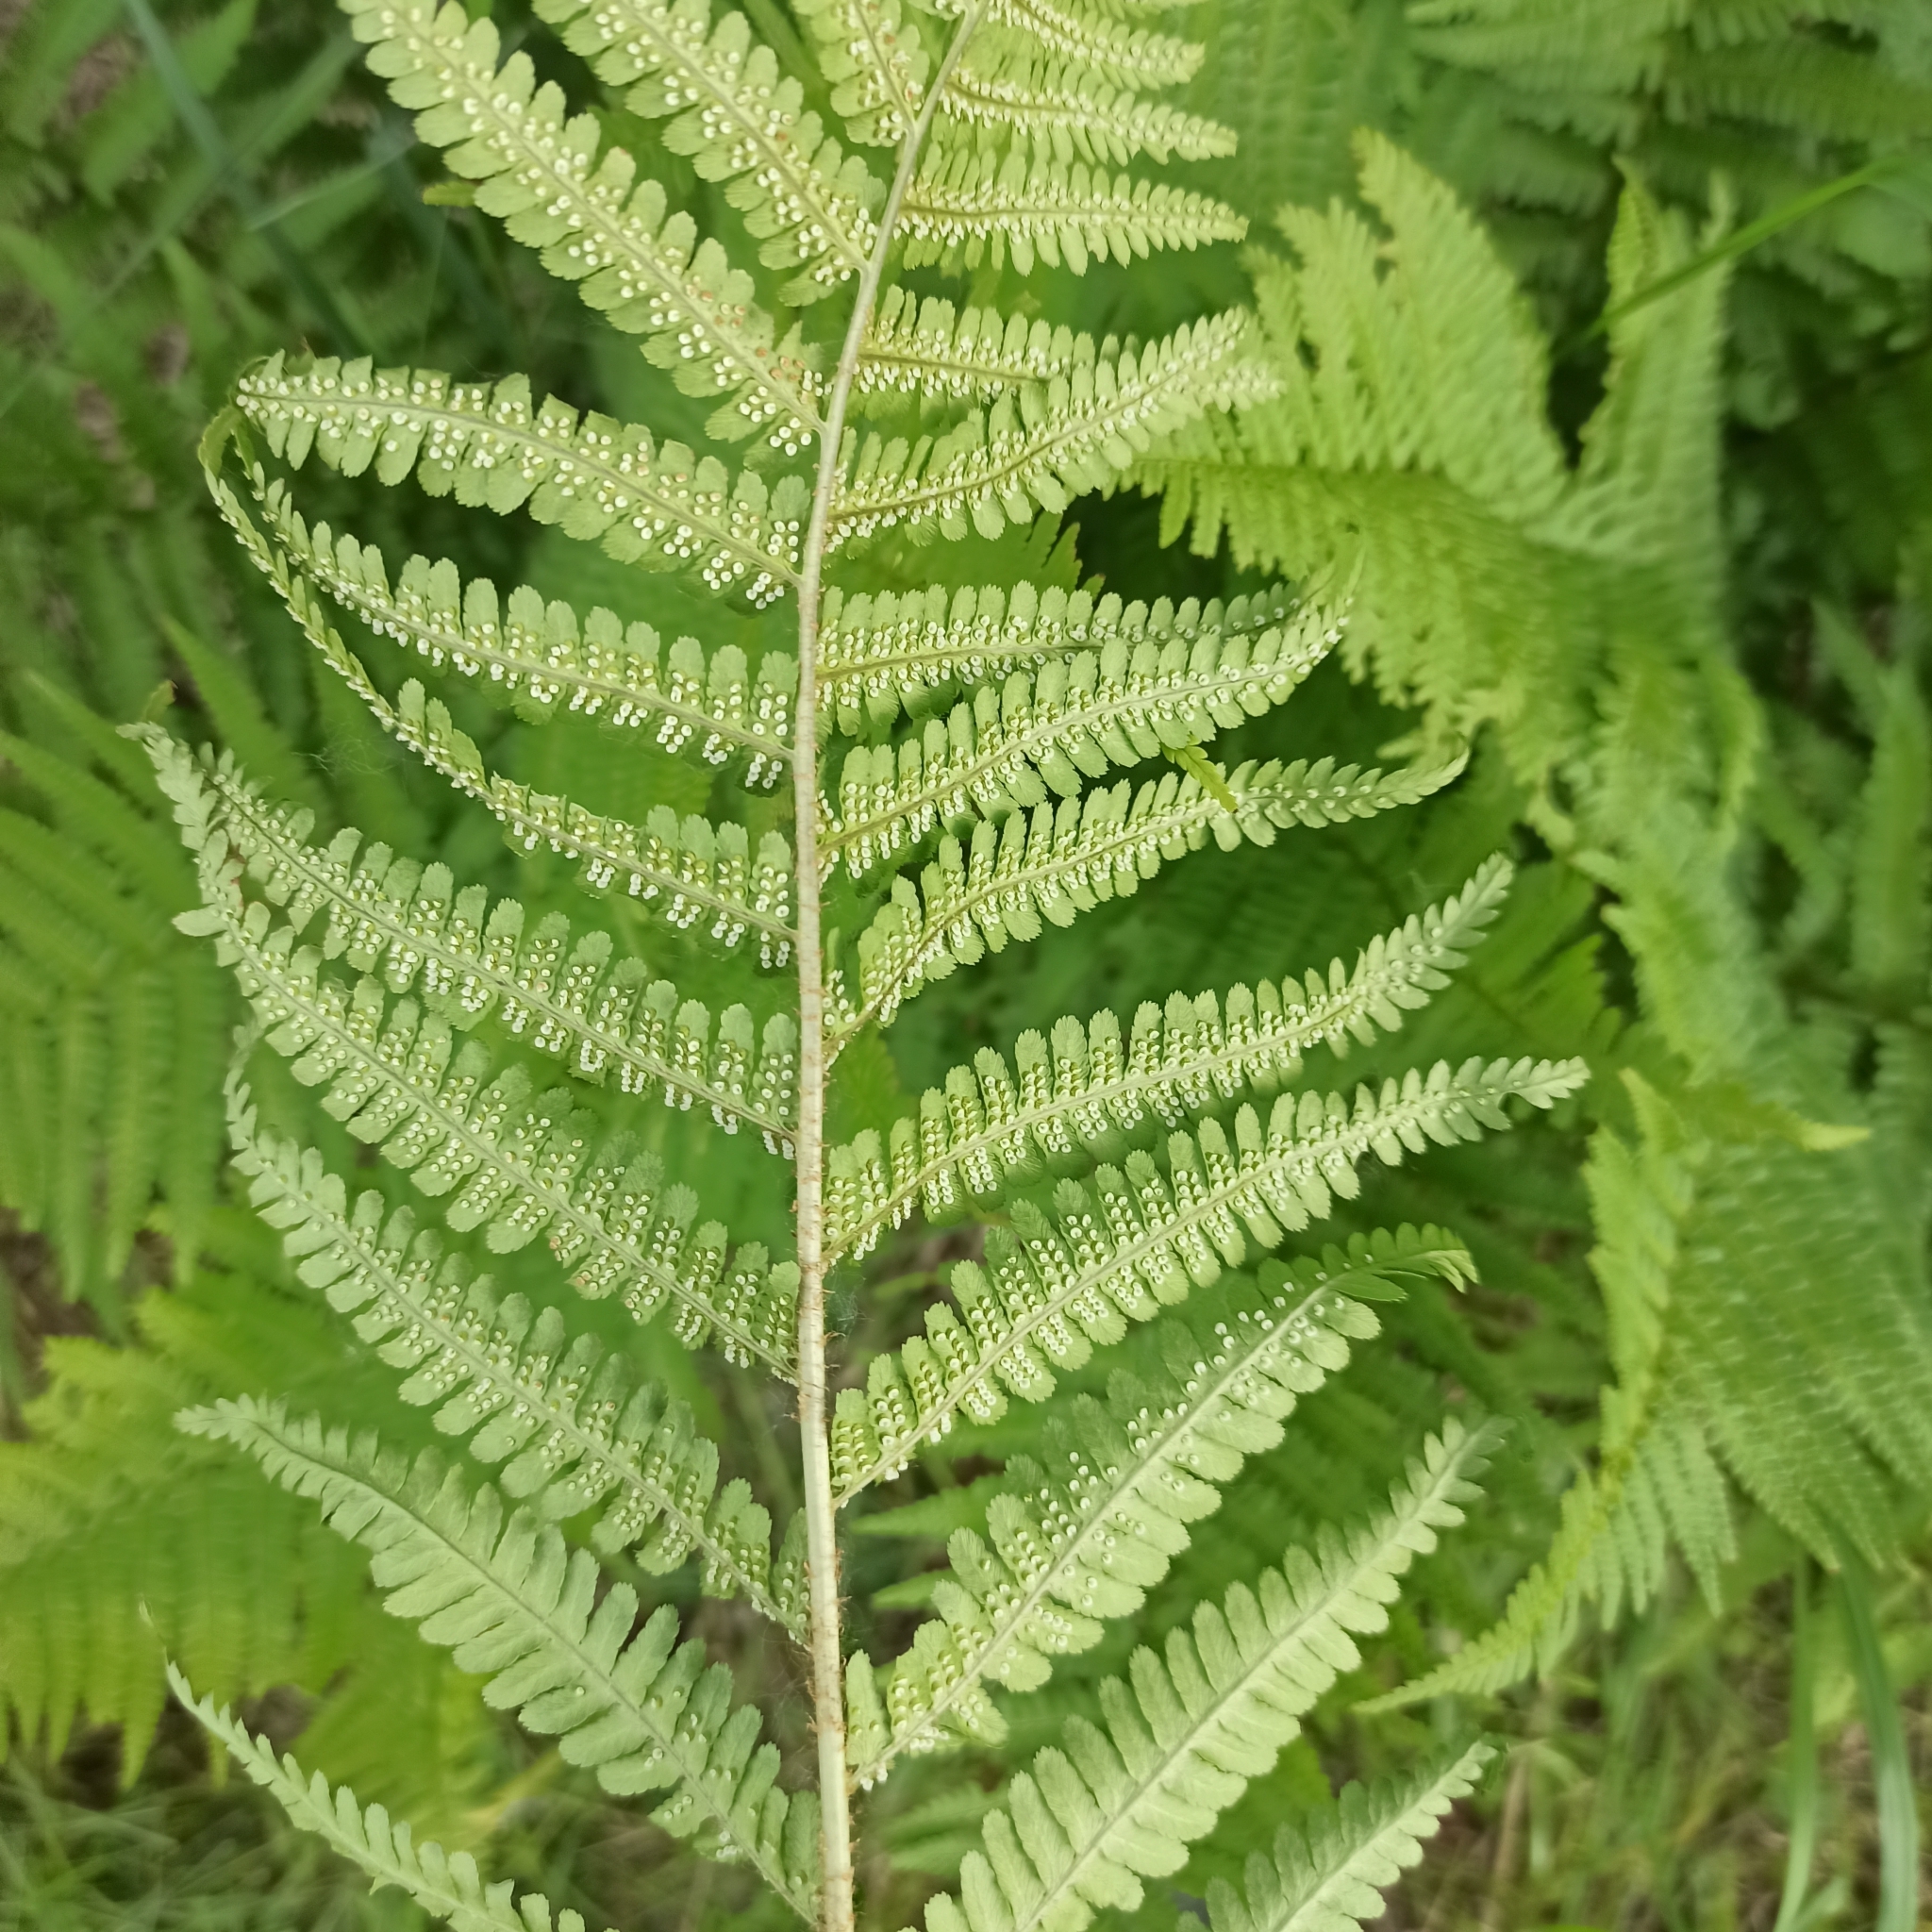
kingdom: Plantae
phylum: Tracheophyta
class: Polypodiopsida
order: Polypodiales
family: Dryopteridaceae
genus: Dryopteris
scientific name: Dryopteris filix-mas
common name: Male fern
